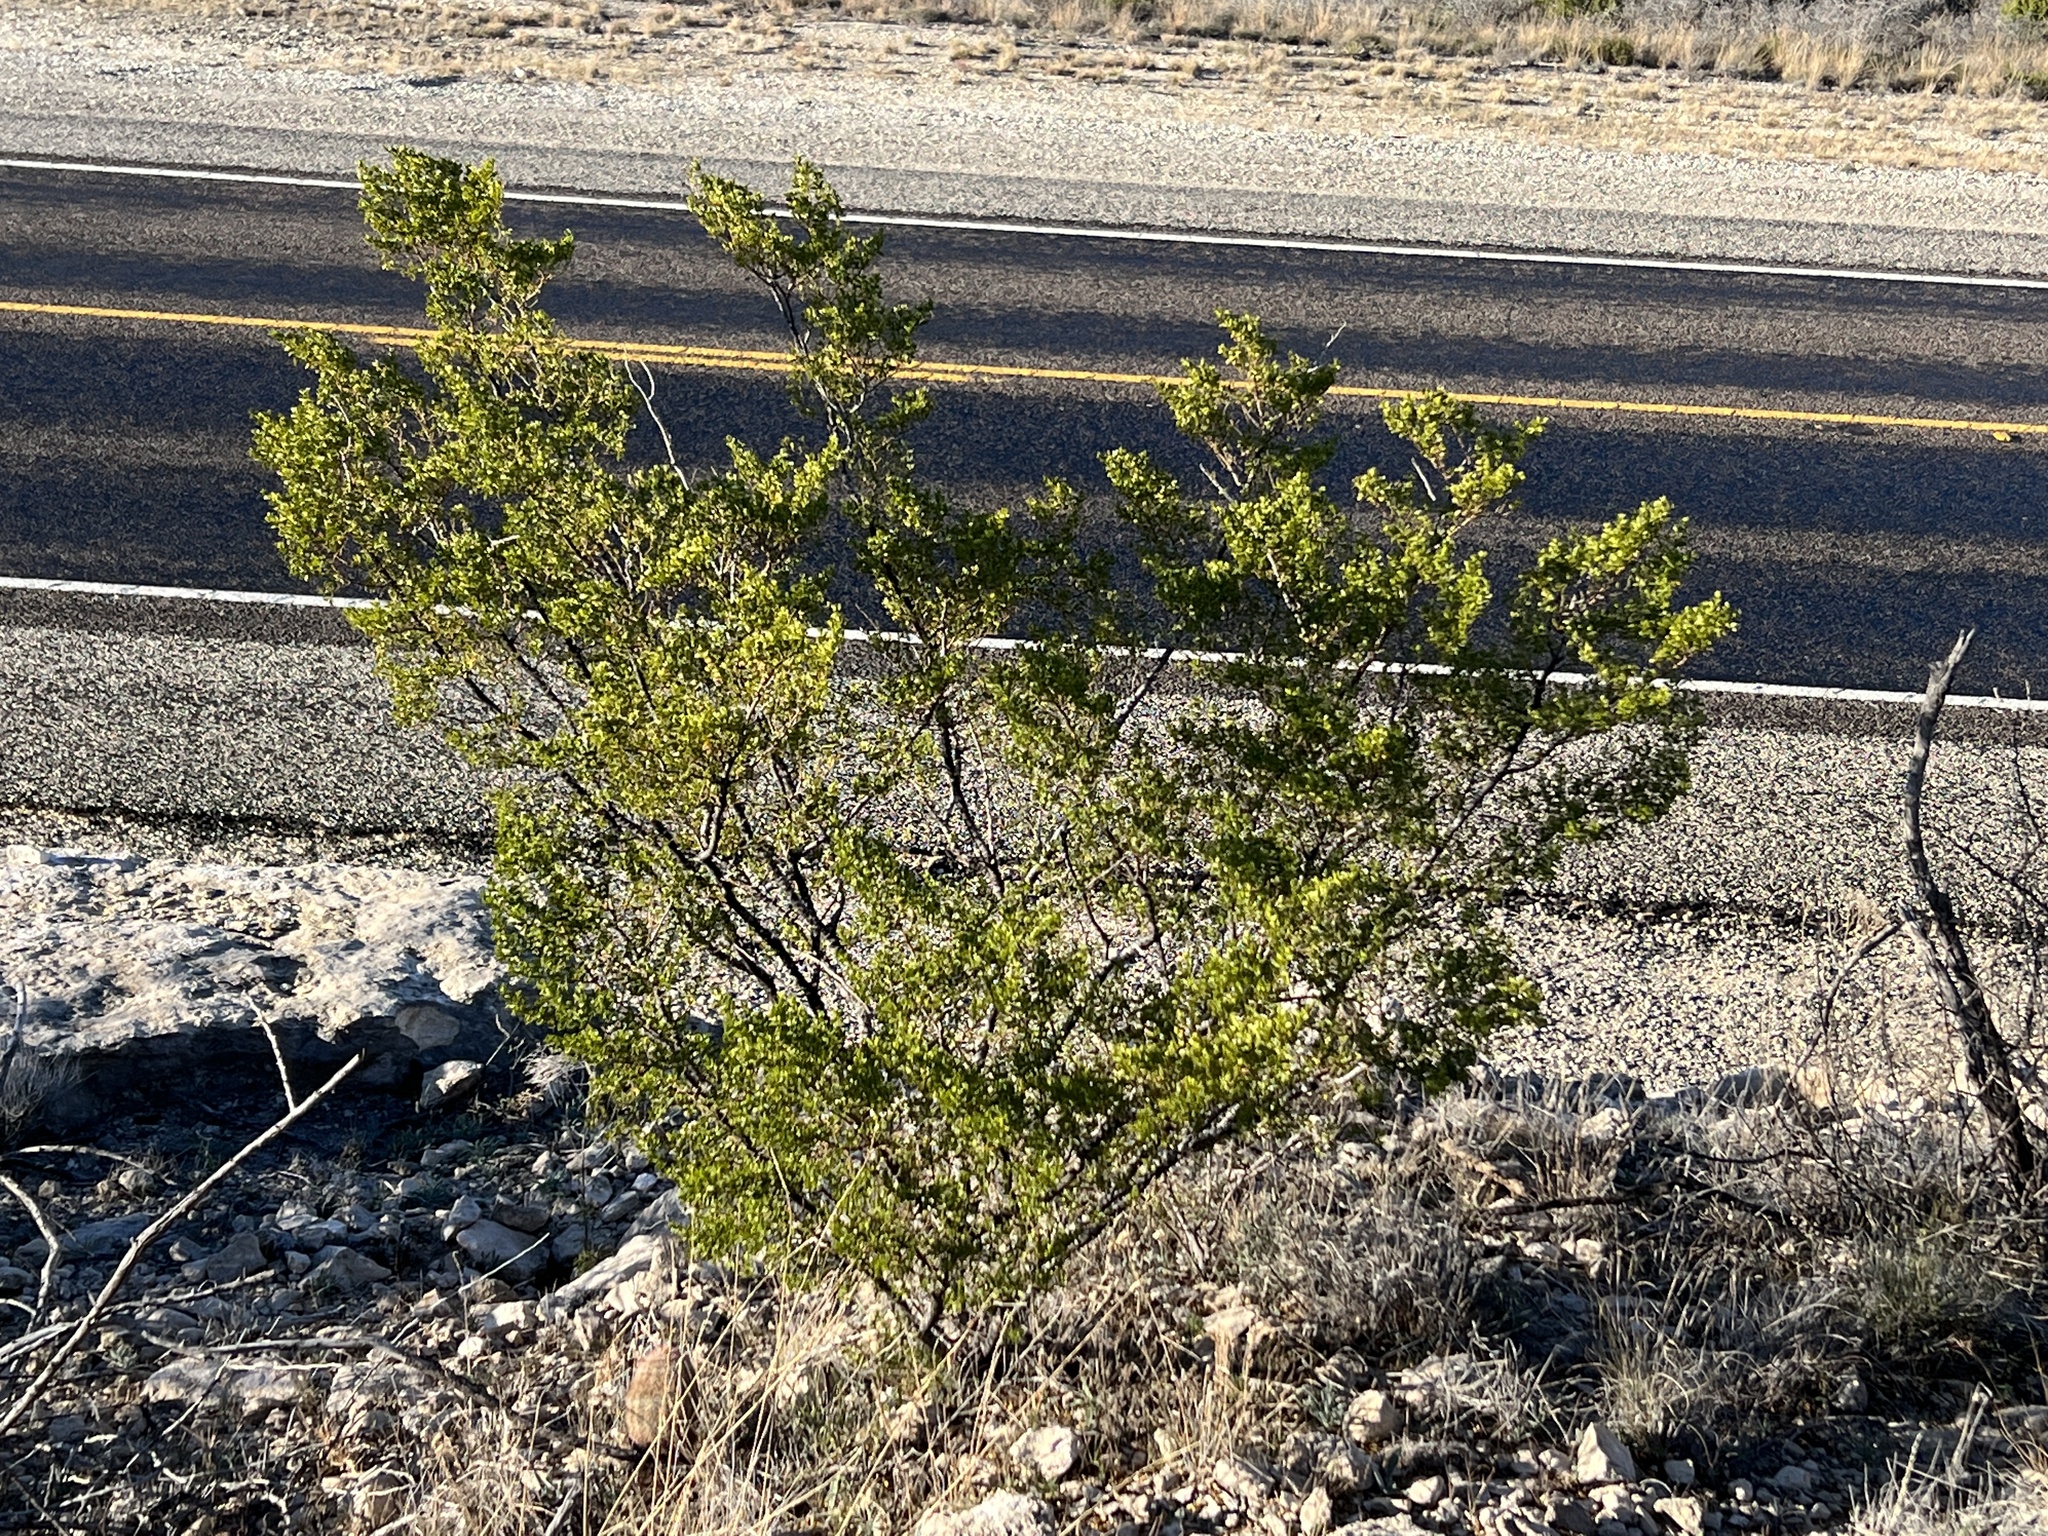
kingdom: Plantae
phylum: Tracheophyta
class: Magnoliopsida
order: Zygophyllales
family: Zygophyllaceae
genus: Larrea
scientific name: Larrea tridentata
